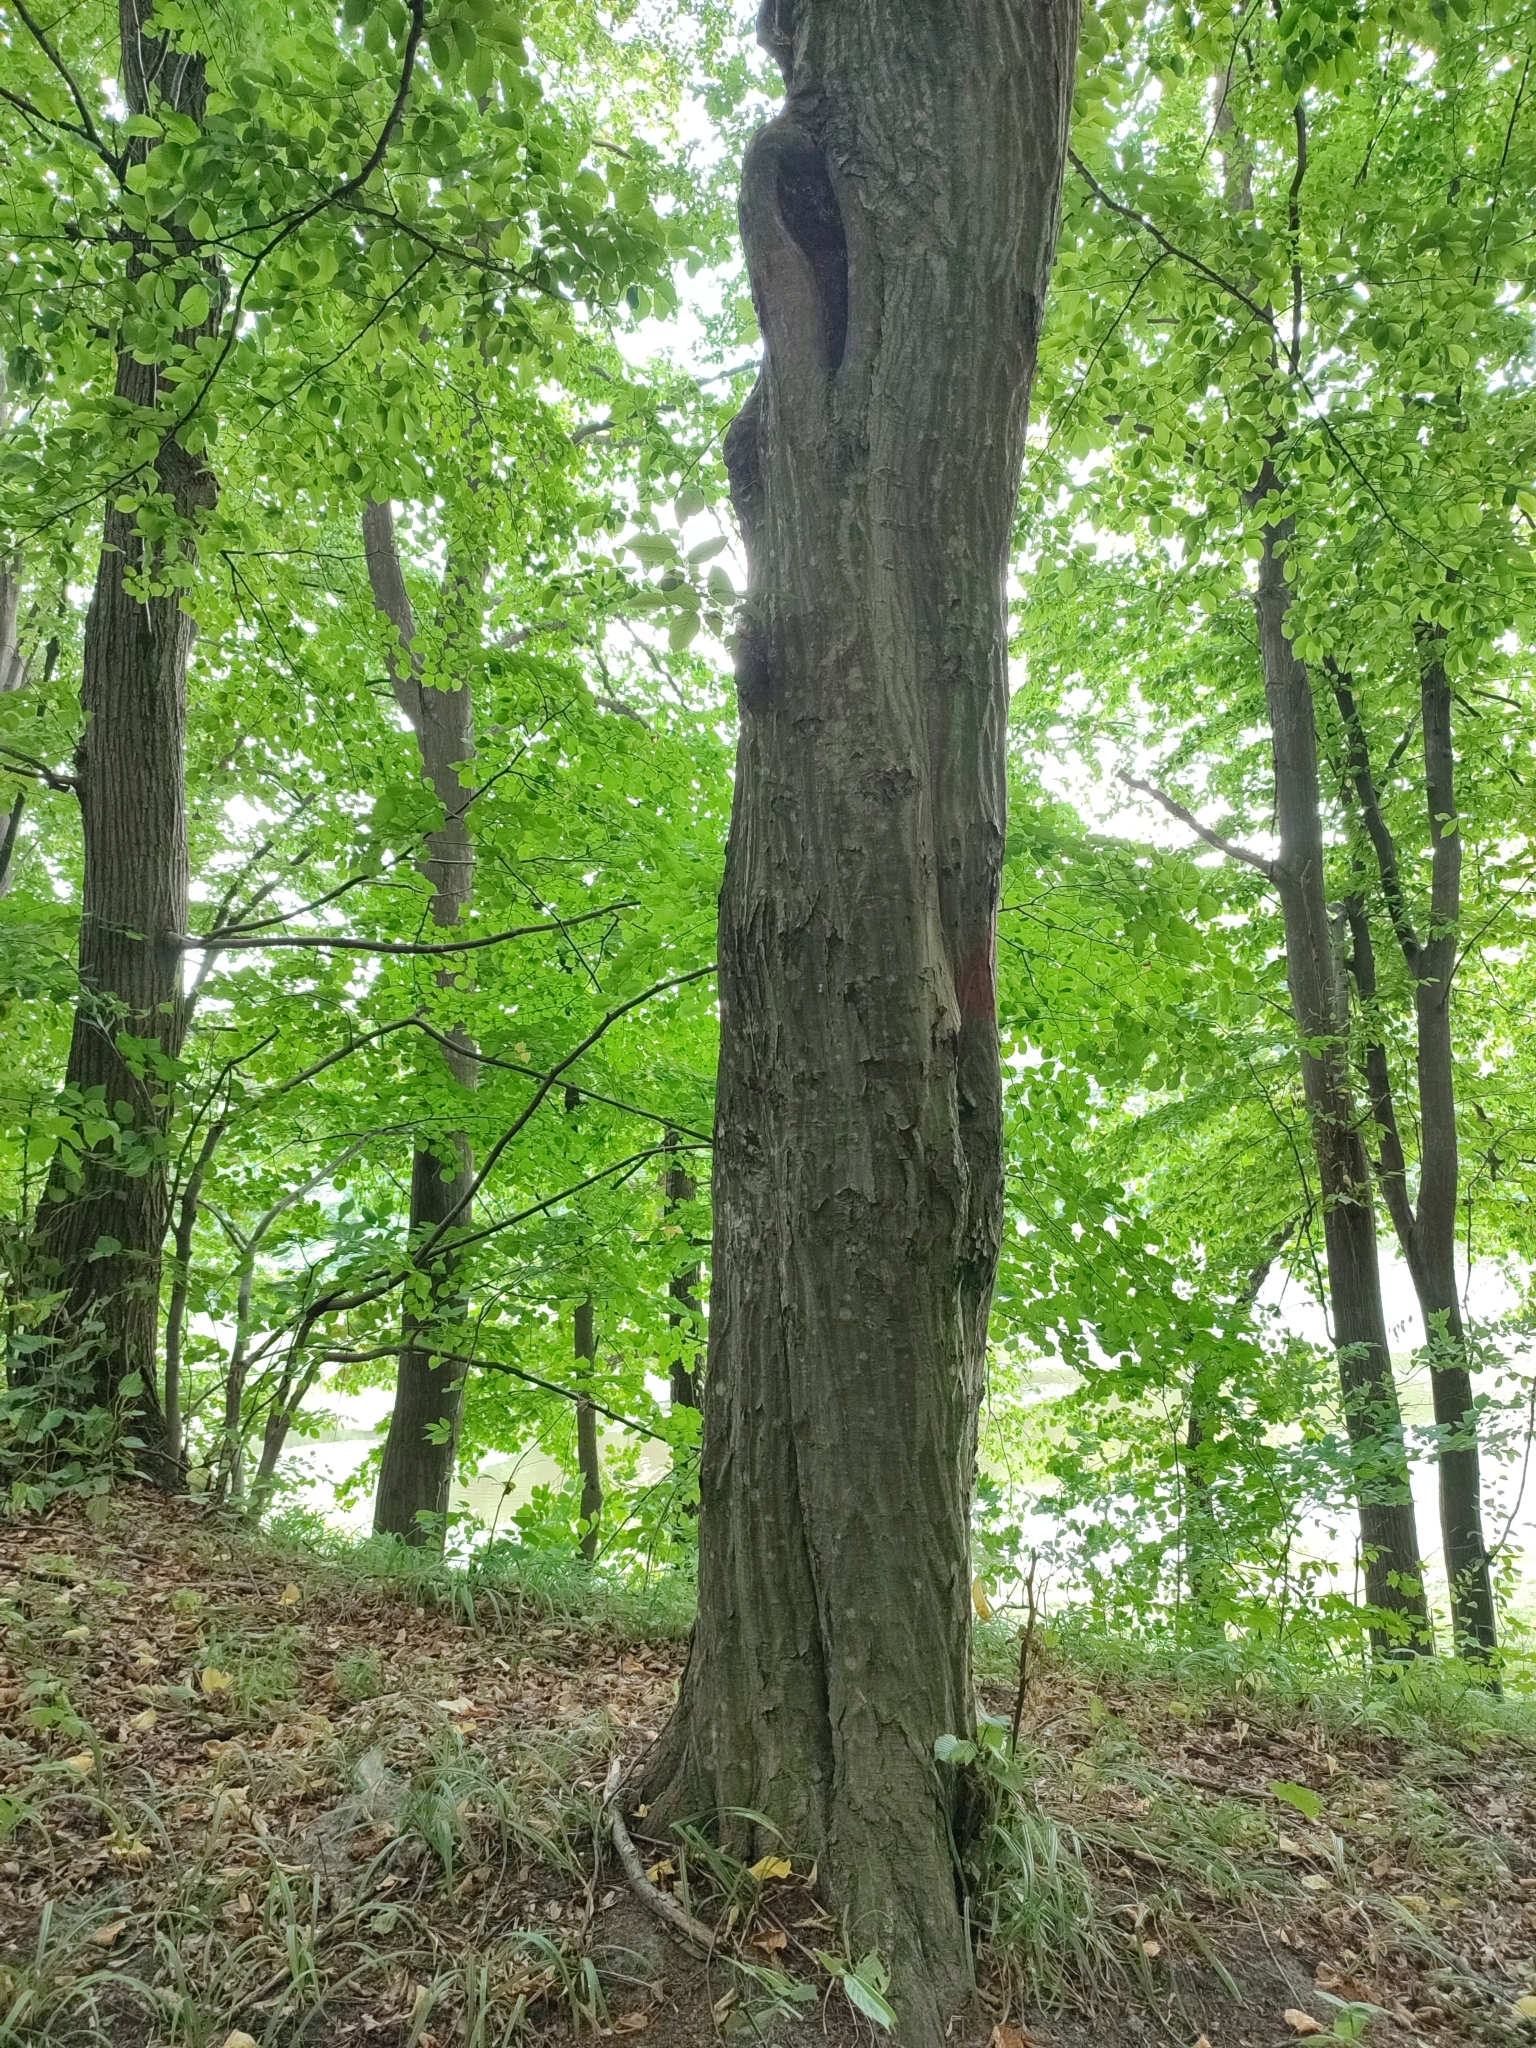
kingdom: Plantae
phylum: Tracheophyta
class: Magnoliopsida
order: Fagales
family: Betulaceae
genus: Carpinus
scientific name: Carpinus betulus
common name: Hornbeam
